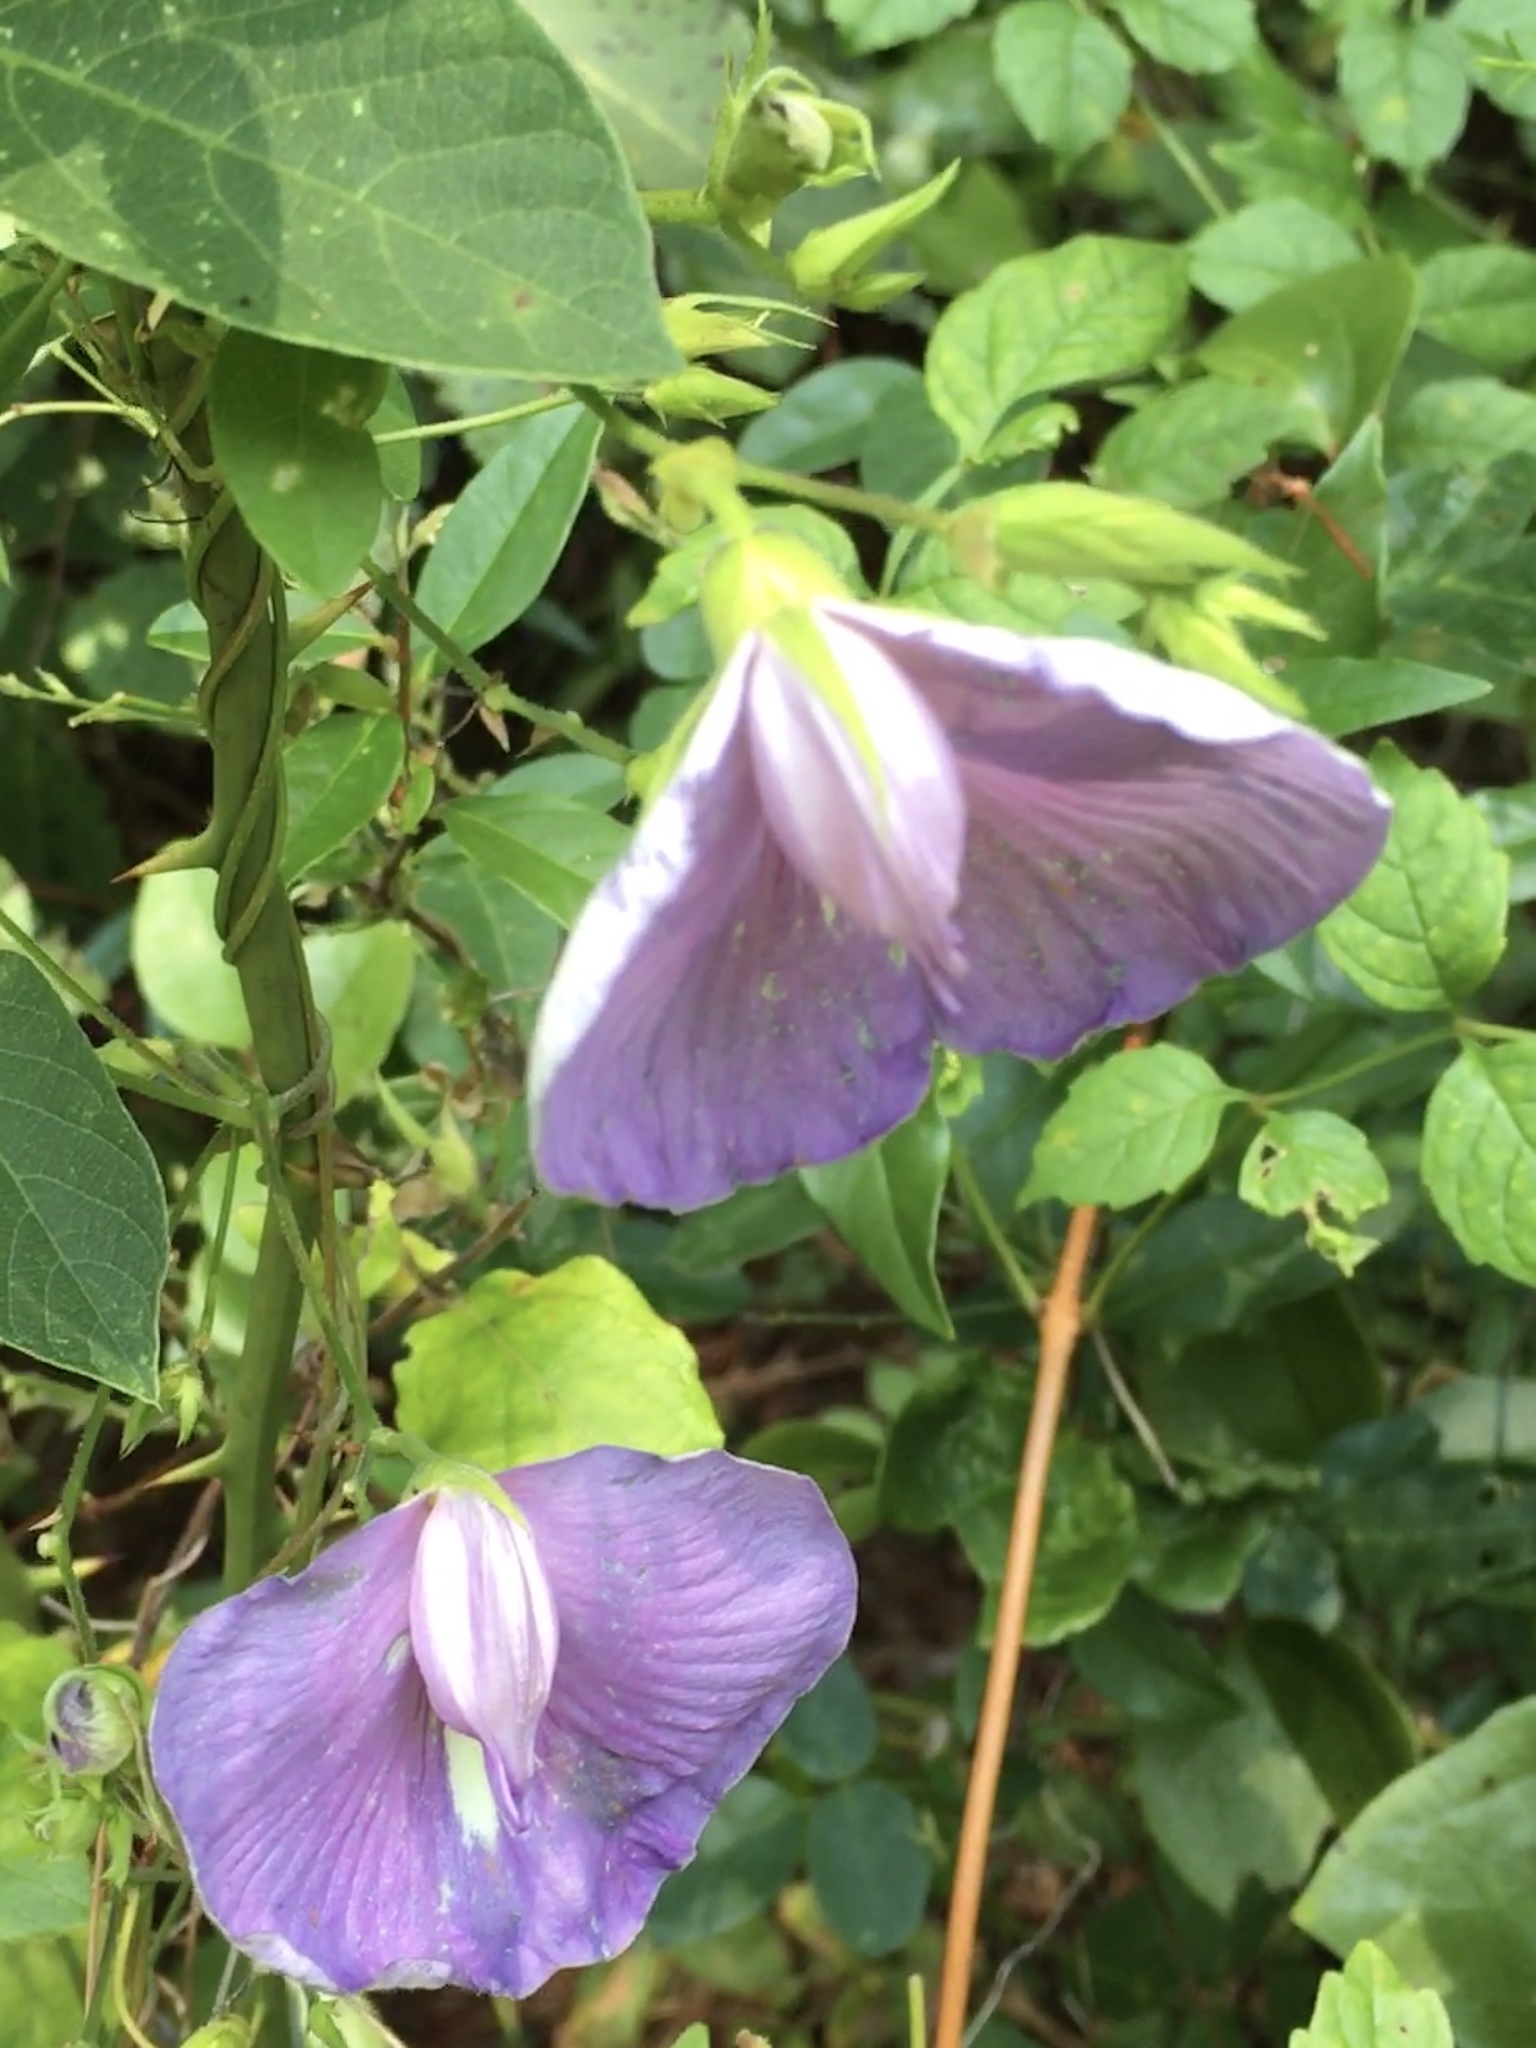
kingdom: Plantae
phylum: Tracheophyta
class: Magnoliopsida
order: Fabales
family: Fabaceae
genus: Centrosema
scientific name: Centrosema virginianum
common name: Butterfly-pea
